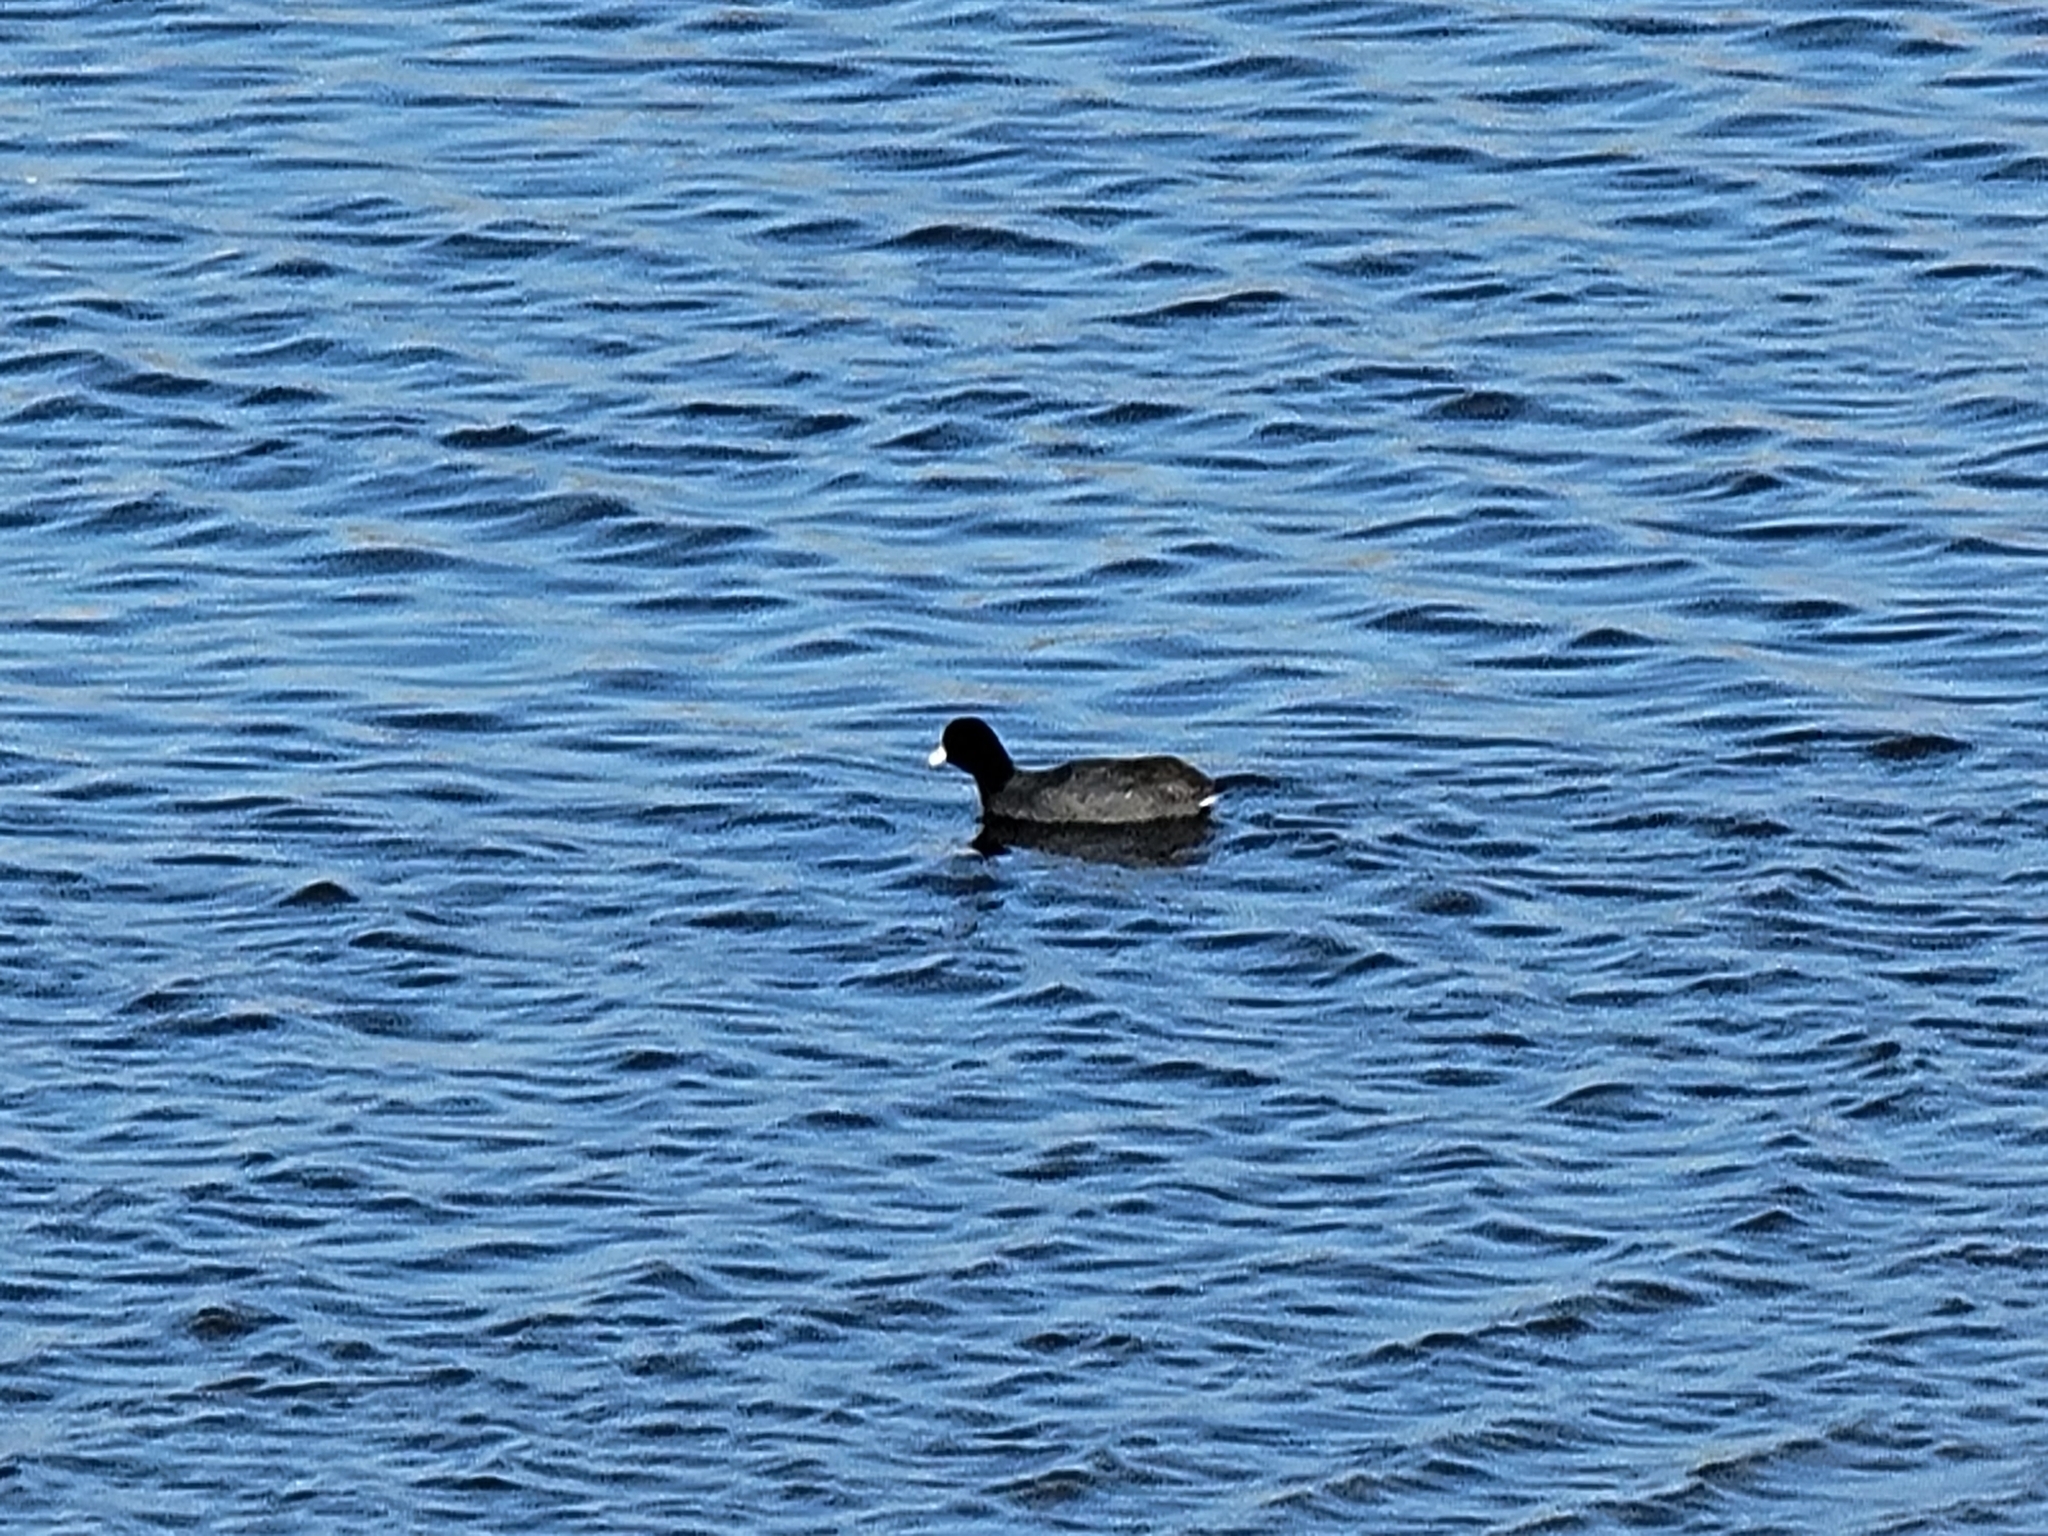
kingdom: Animalia
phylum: Chordata
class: Aves
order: Gruiformes
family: Rallidae
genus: Fulica
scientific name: Fulica americana
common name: American coot
